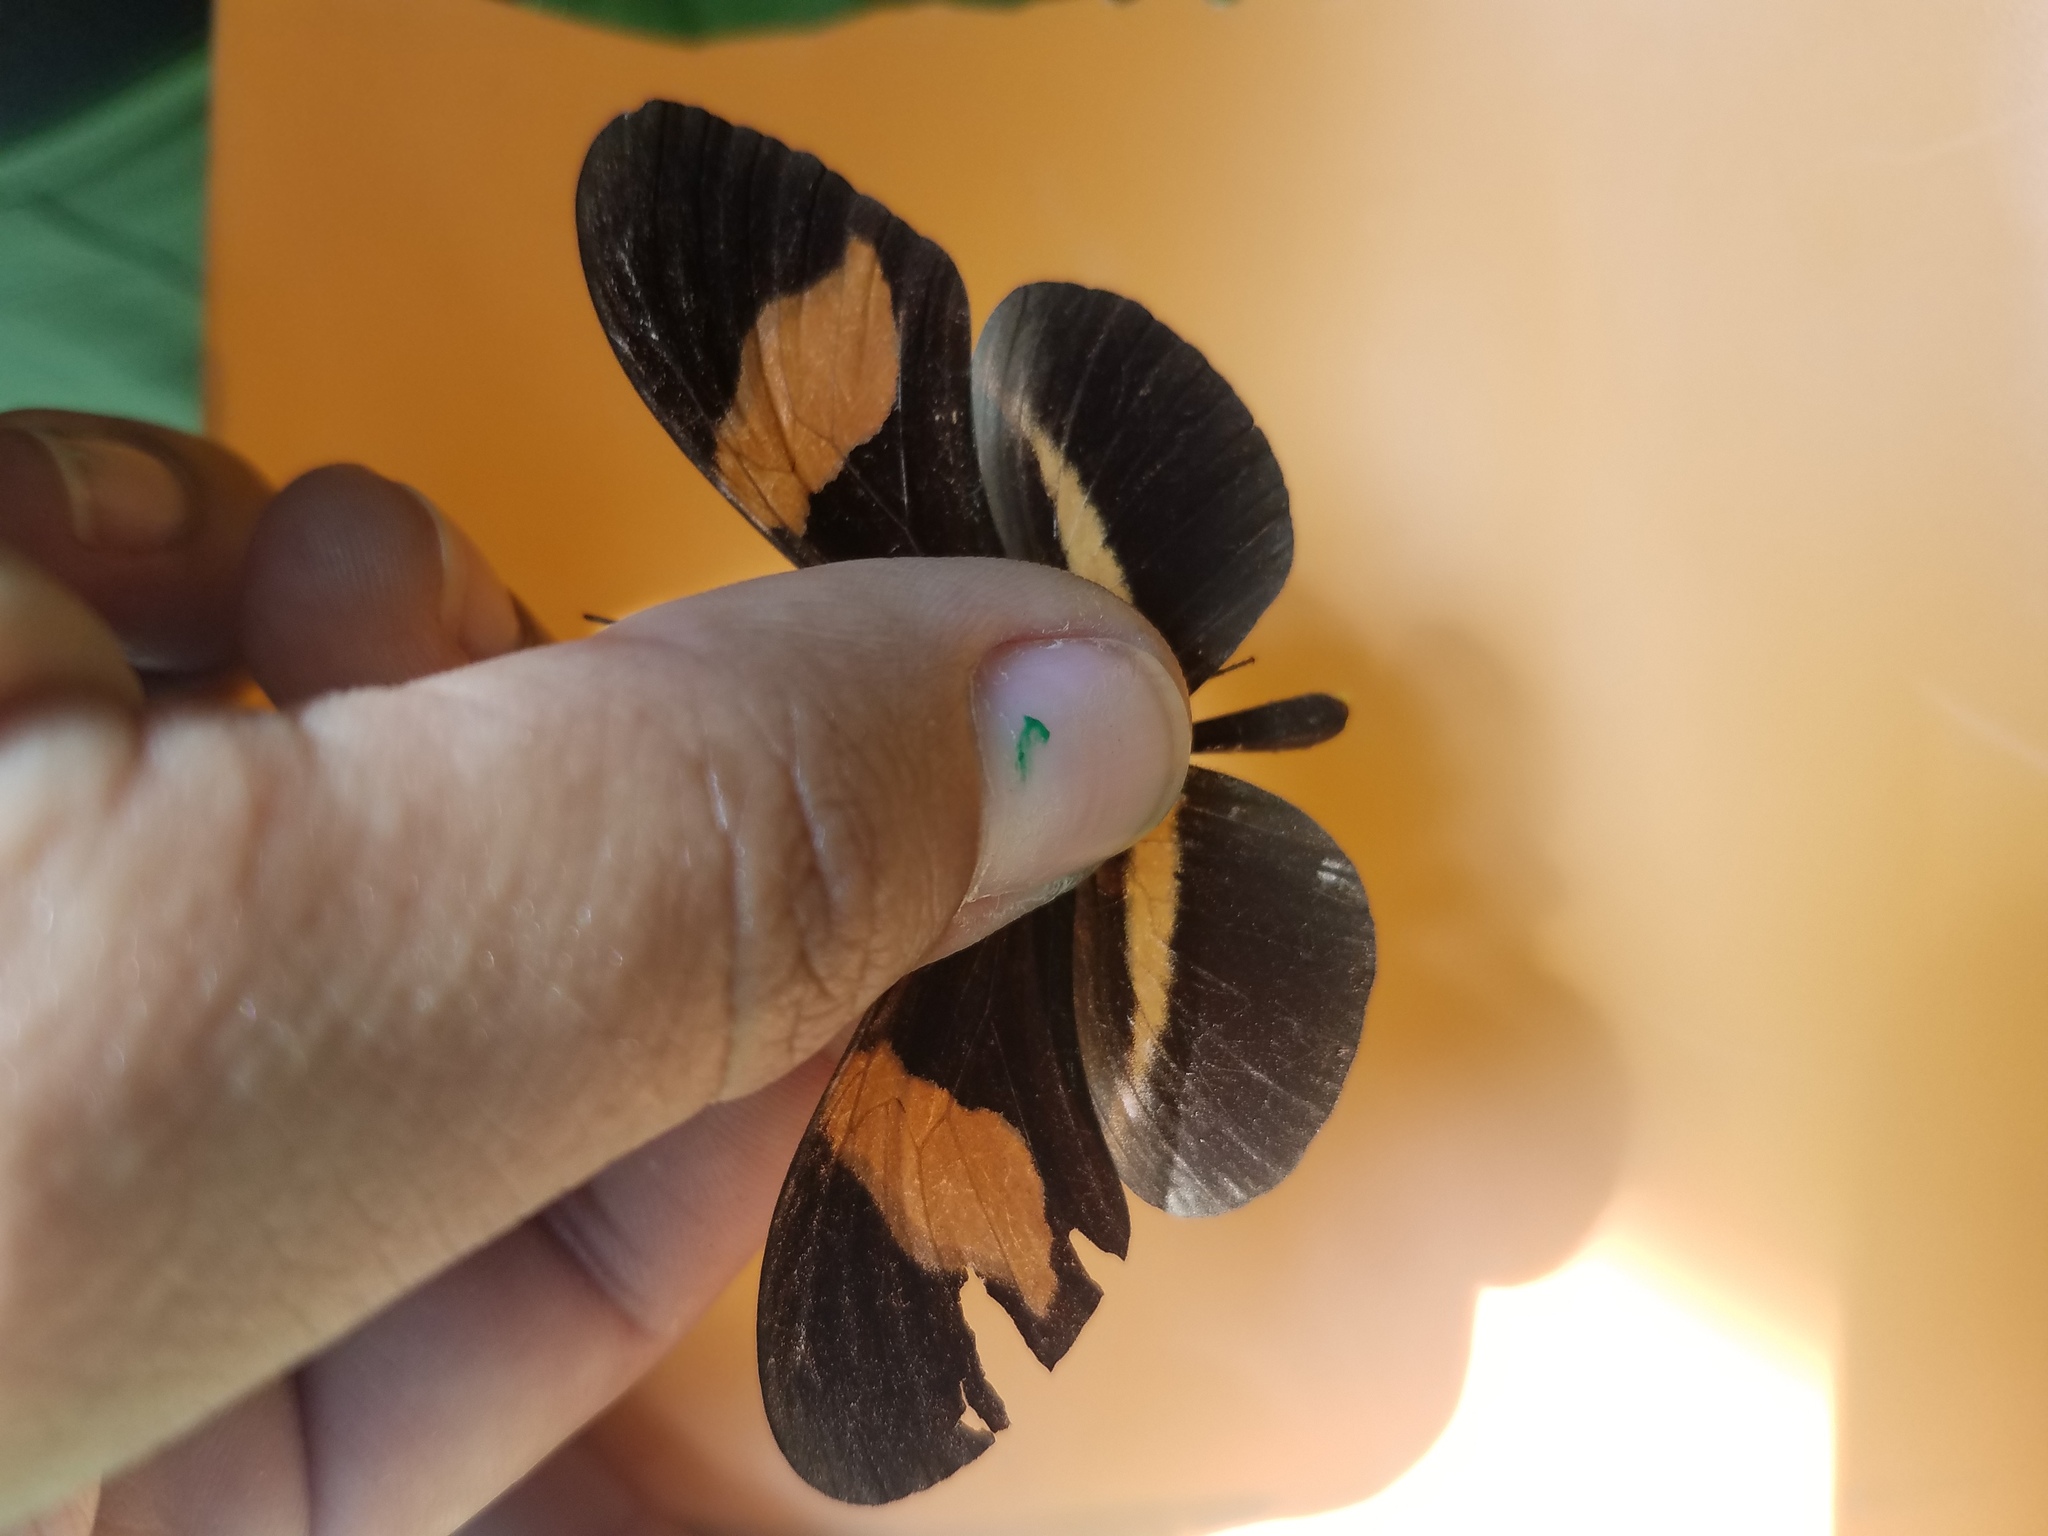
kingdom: Animalia
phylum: Arthropoda
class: Insecta
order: Lepidoptera
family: Nymphalidae
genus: Tirumala
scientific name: Tirumala petiverana
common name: Blue monarch
